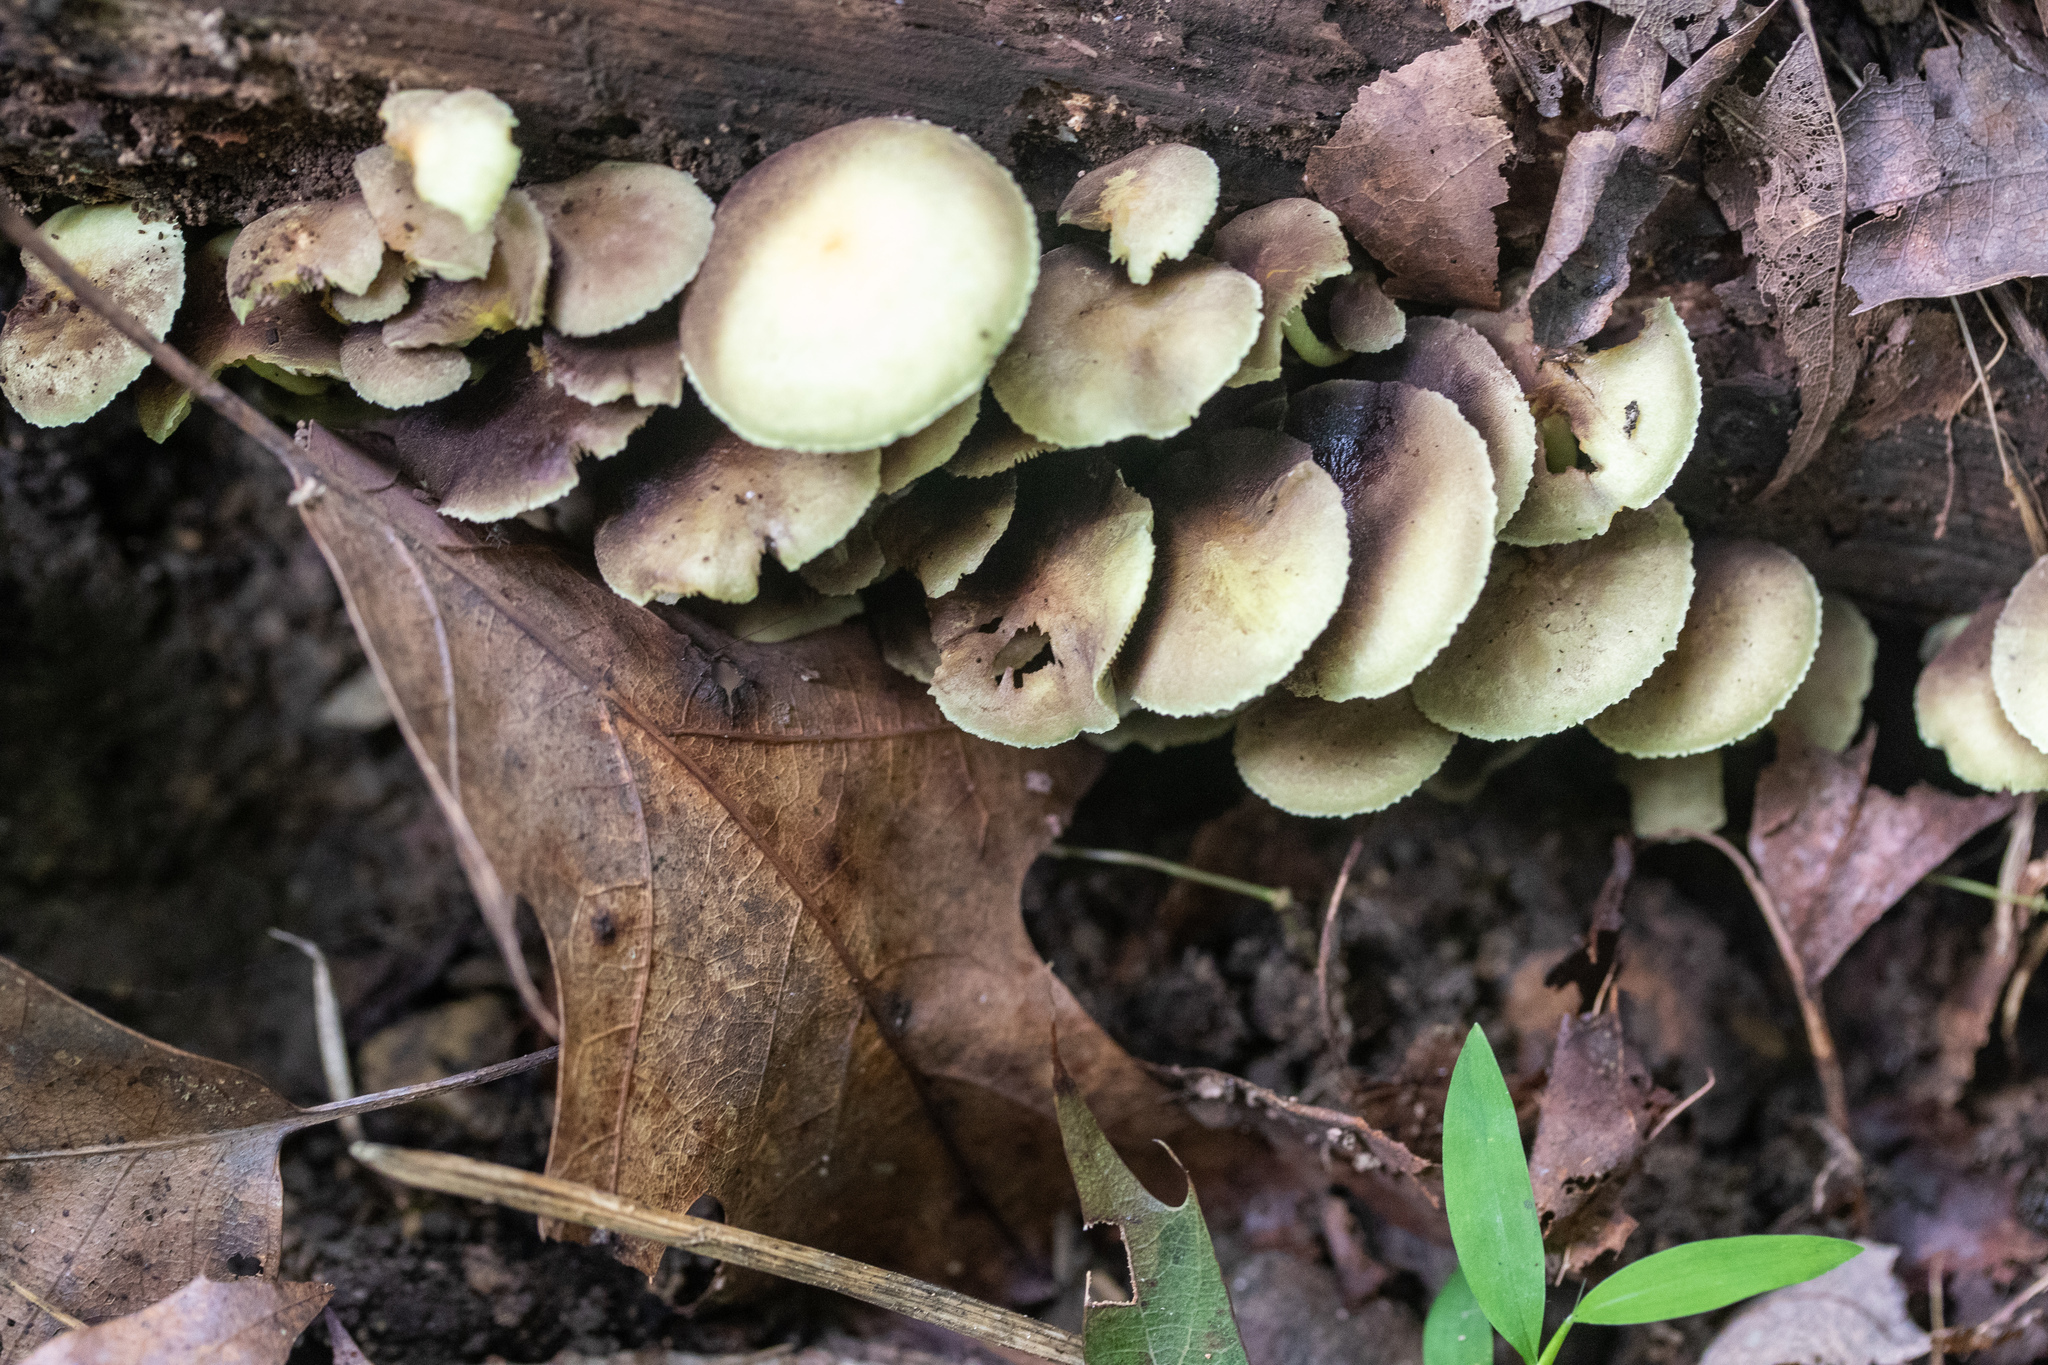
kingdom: Fungi
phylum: Basidiomycota
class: Agaricomycetes
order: Agaricales
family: Strophariaceae
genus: Hypholoma
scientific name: Hypholoma fasciculare
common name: Sulphur tuft
